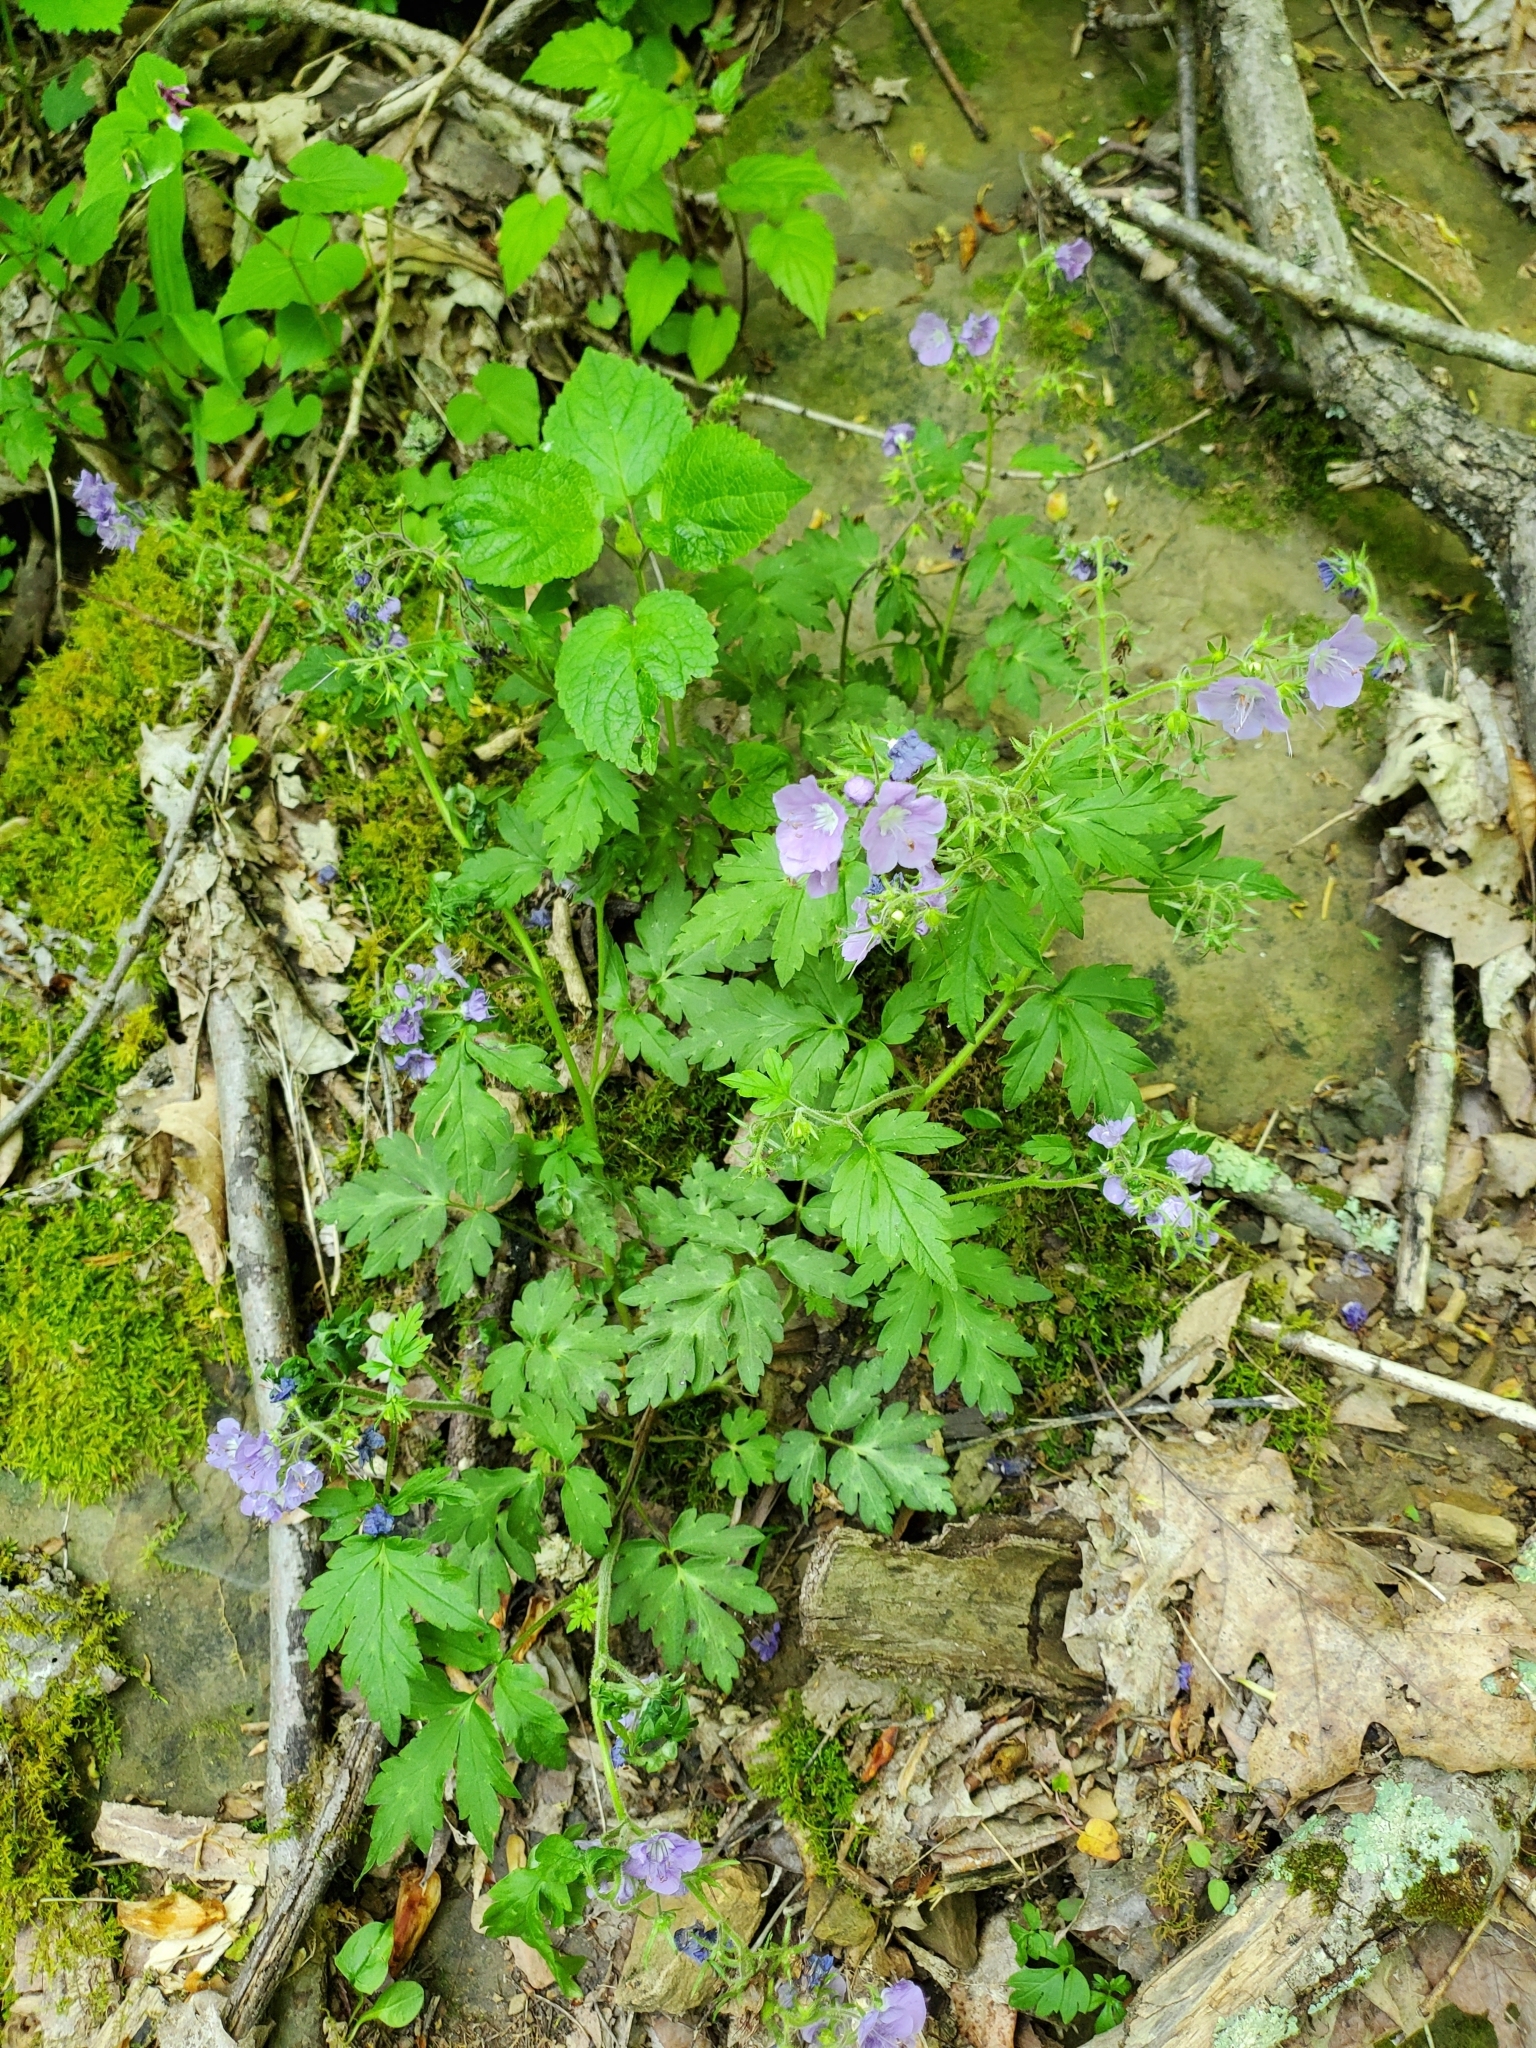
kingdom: Plantae
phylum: Tracheophyta
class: Magnoliopsida
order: Boraginales
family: Hydrophyllaceae
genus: Phacelia
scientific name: Phacelia bipinnatifida
